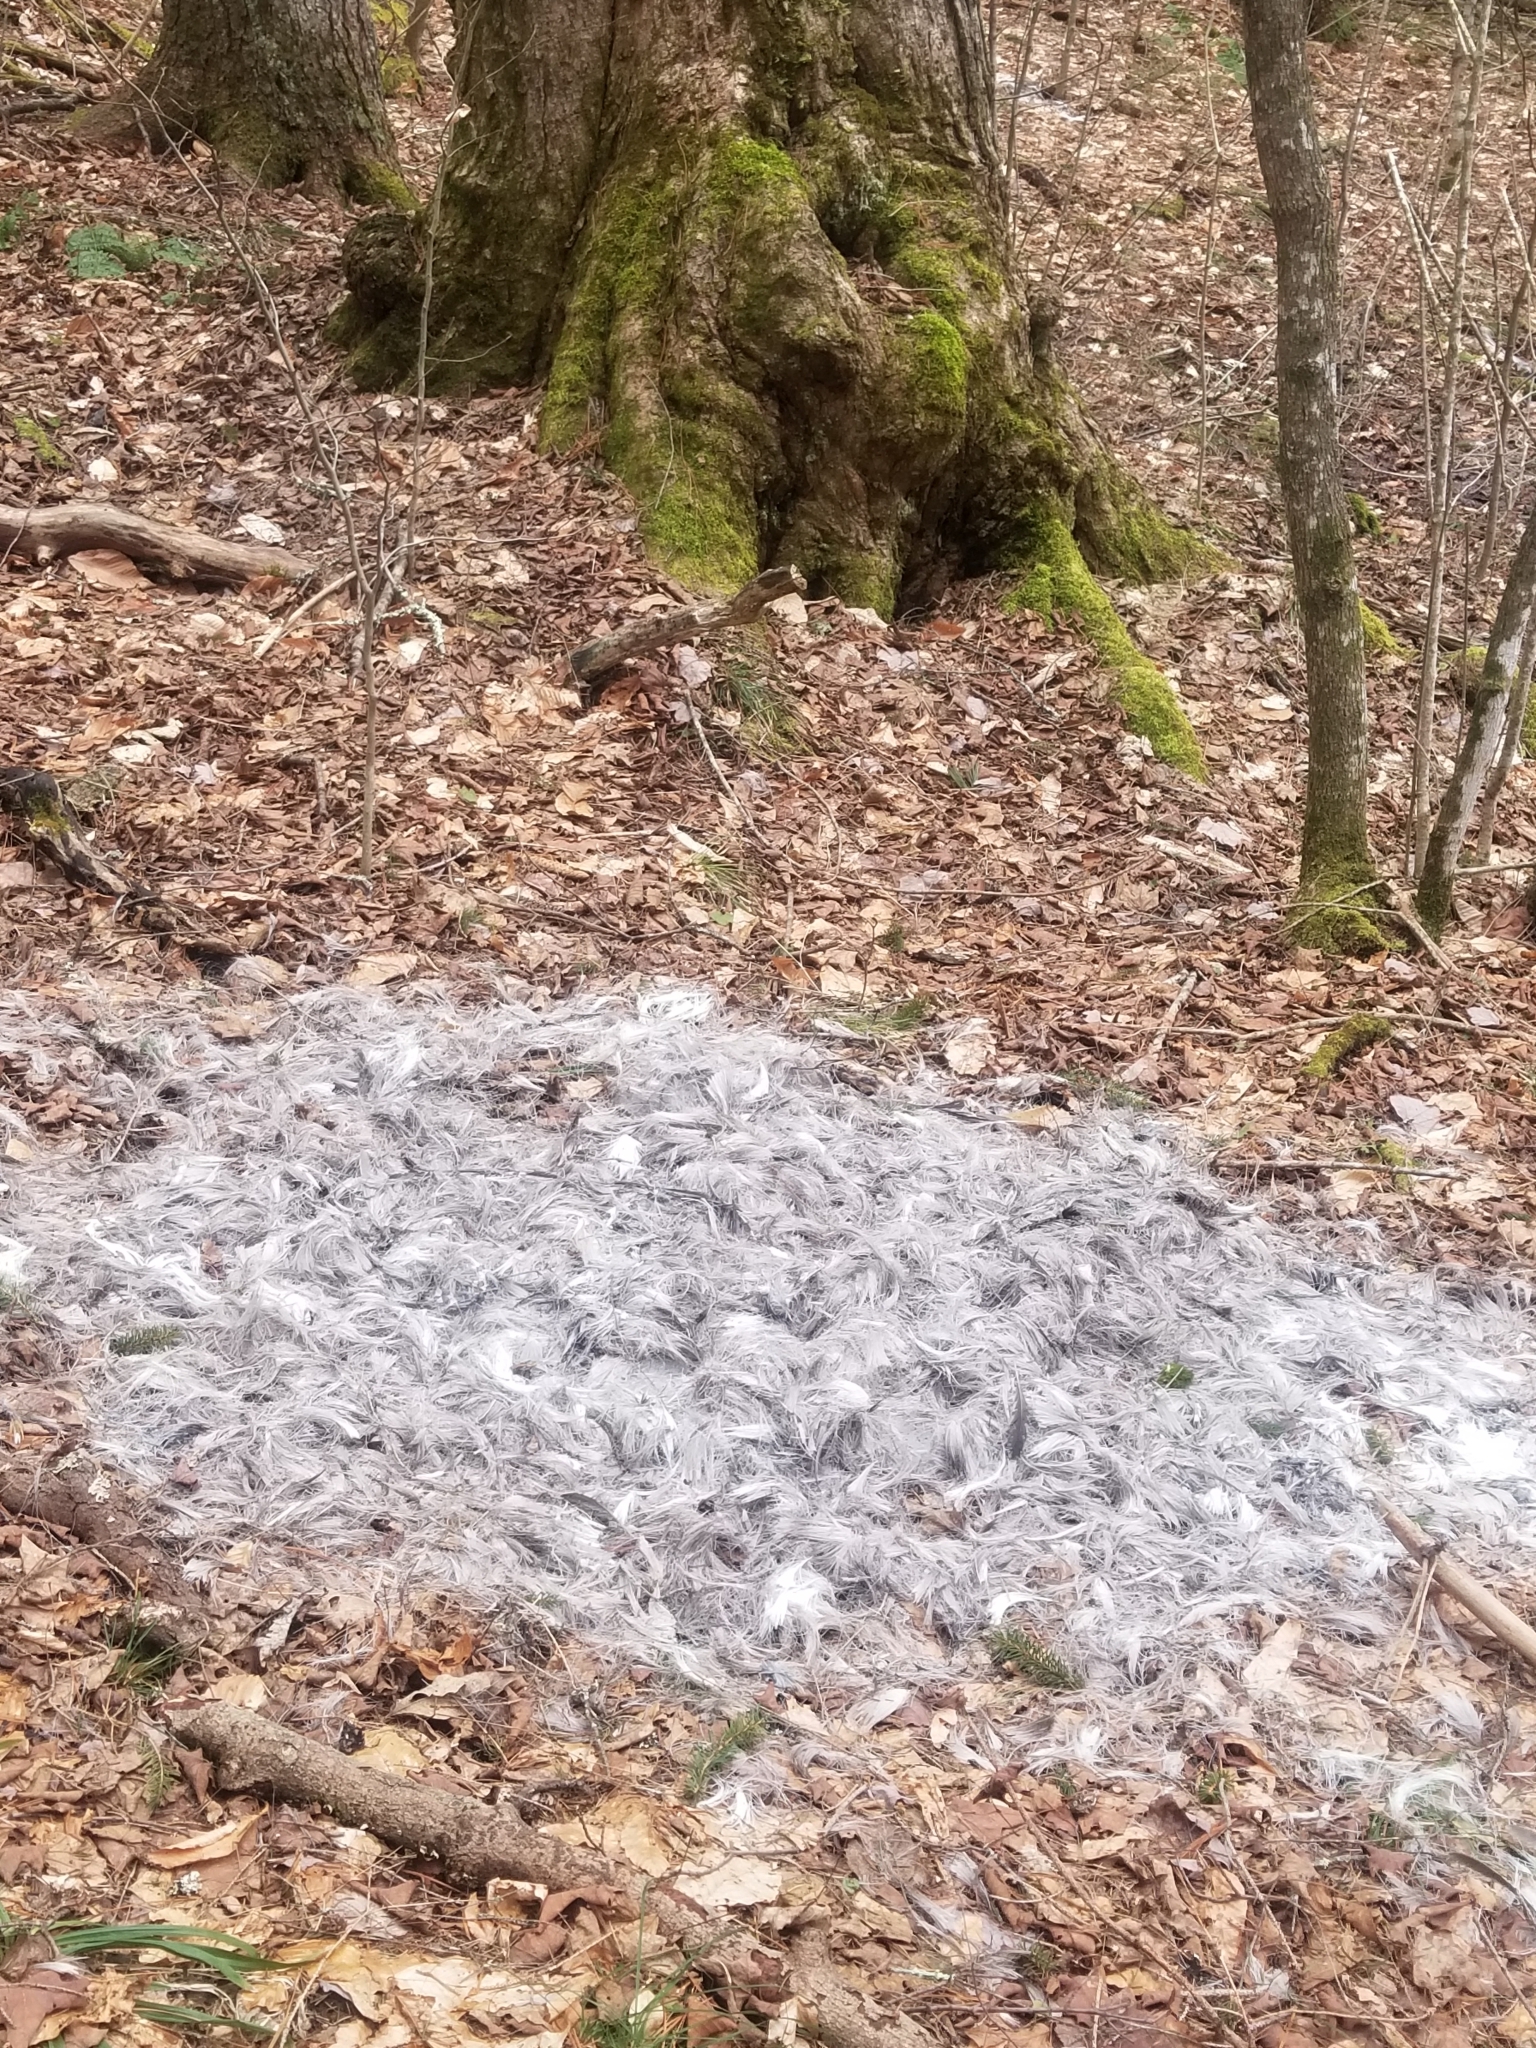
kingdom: Animalia
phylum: Chordata
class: Mammalia
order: Artiodactyla
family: Cervidae
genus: Odocoileus
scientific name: Odocoileus virginianus
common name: White-tailed deer
